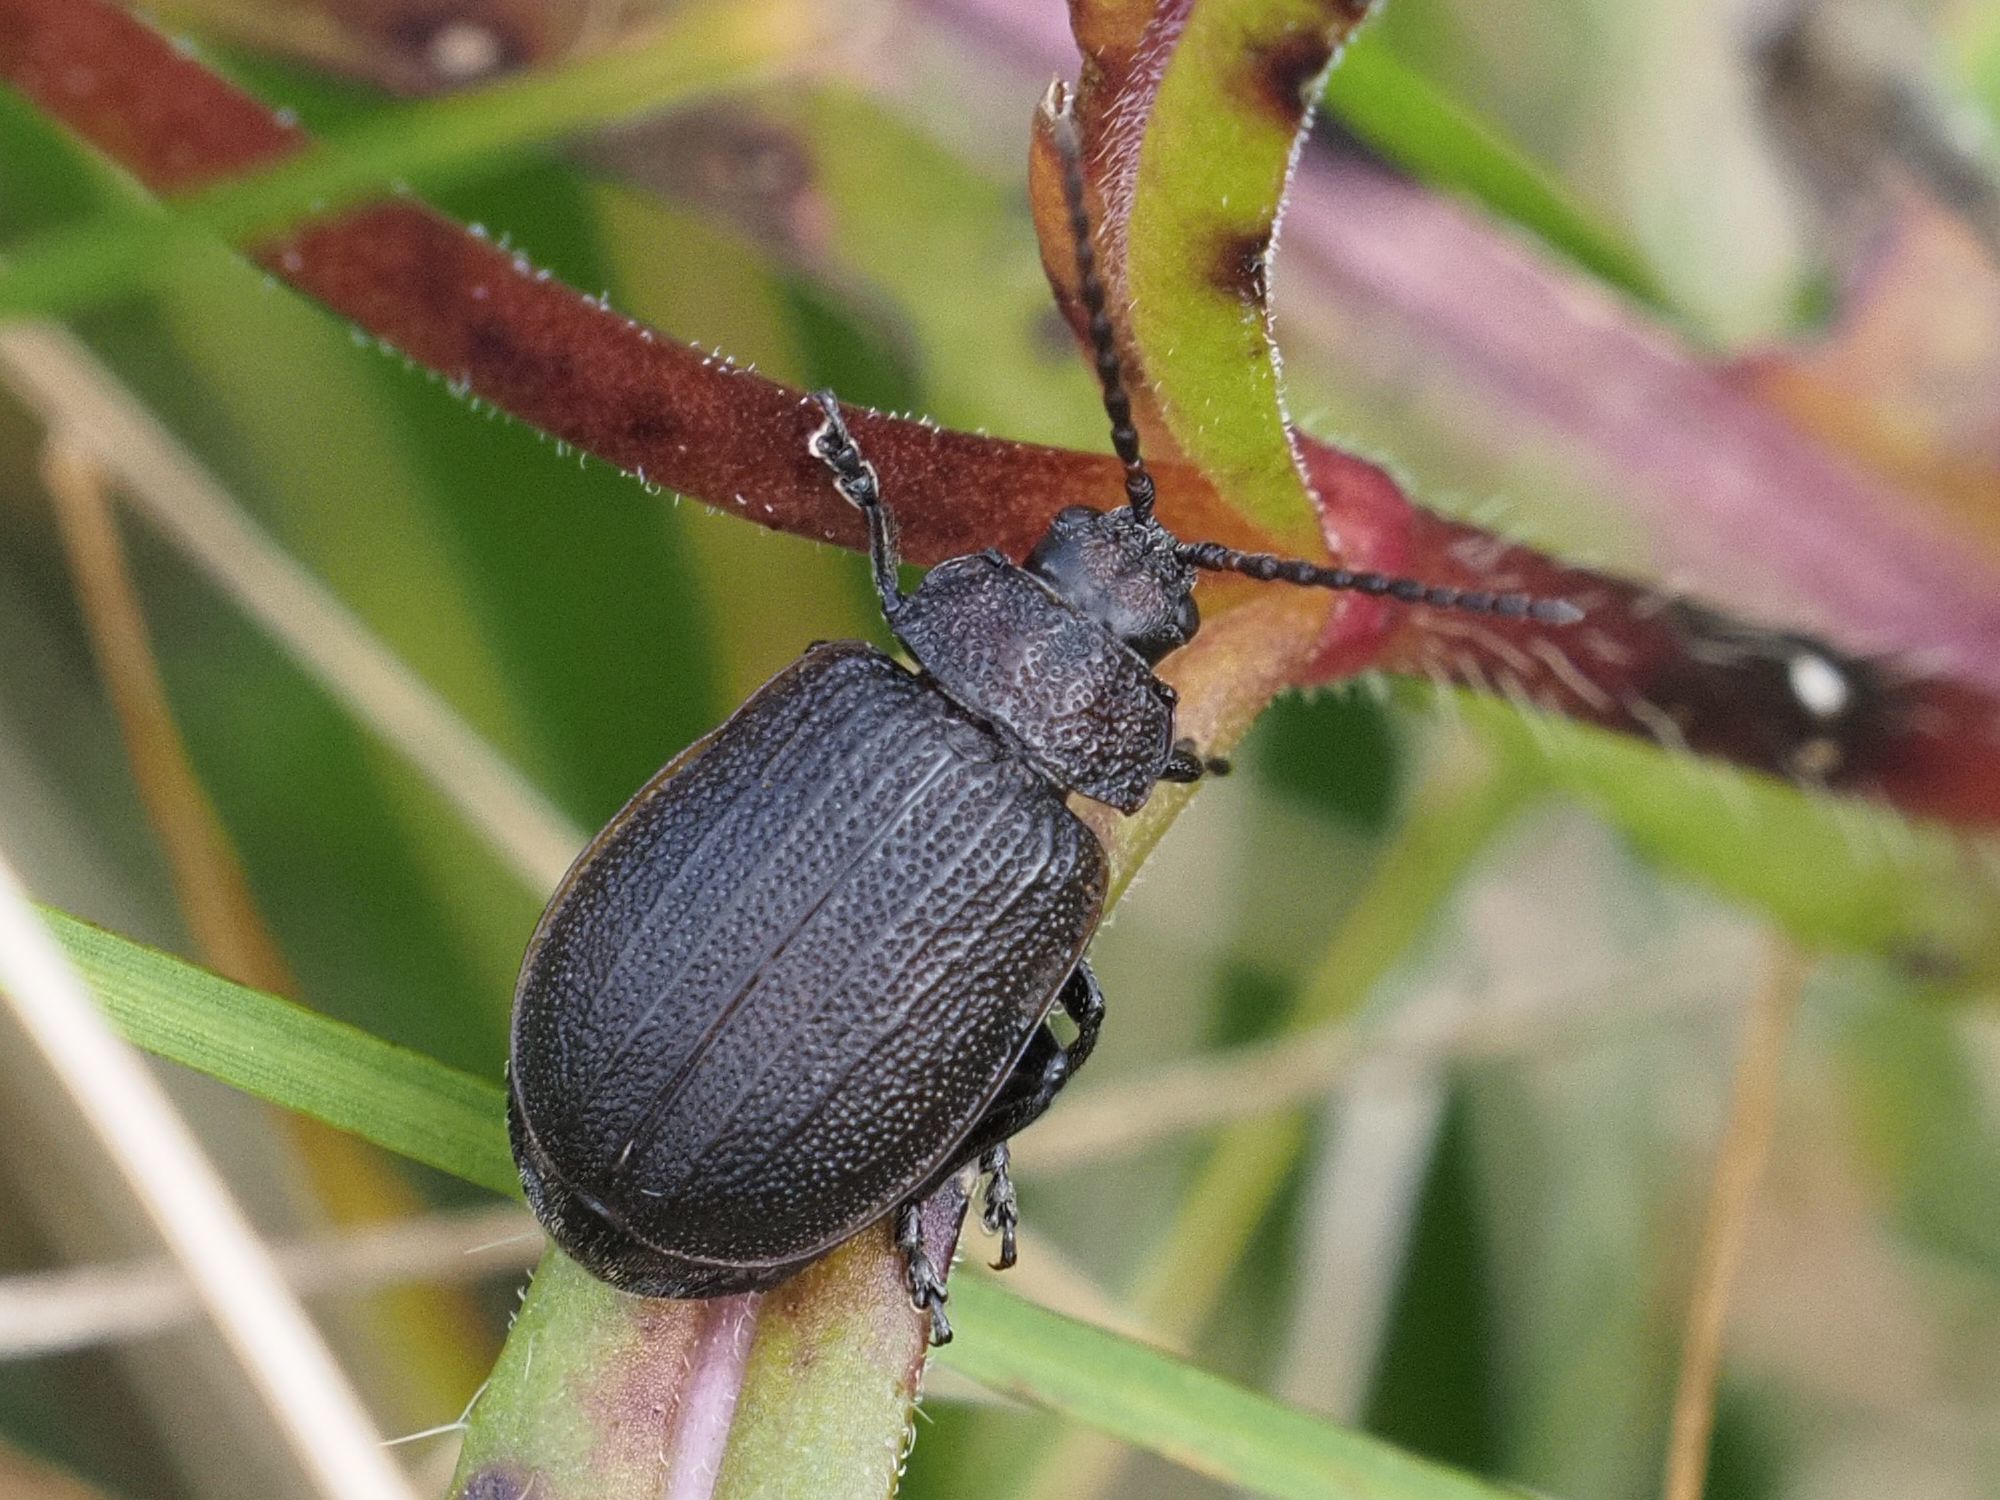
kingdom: Animalia
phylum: Arthropoda
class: Insecta
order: Coleoptera
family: Chrysomelidae
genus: Galeruca
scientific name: Galeruca tanaceti
